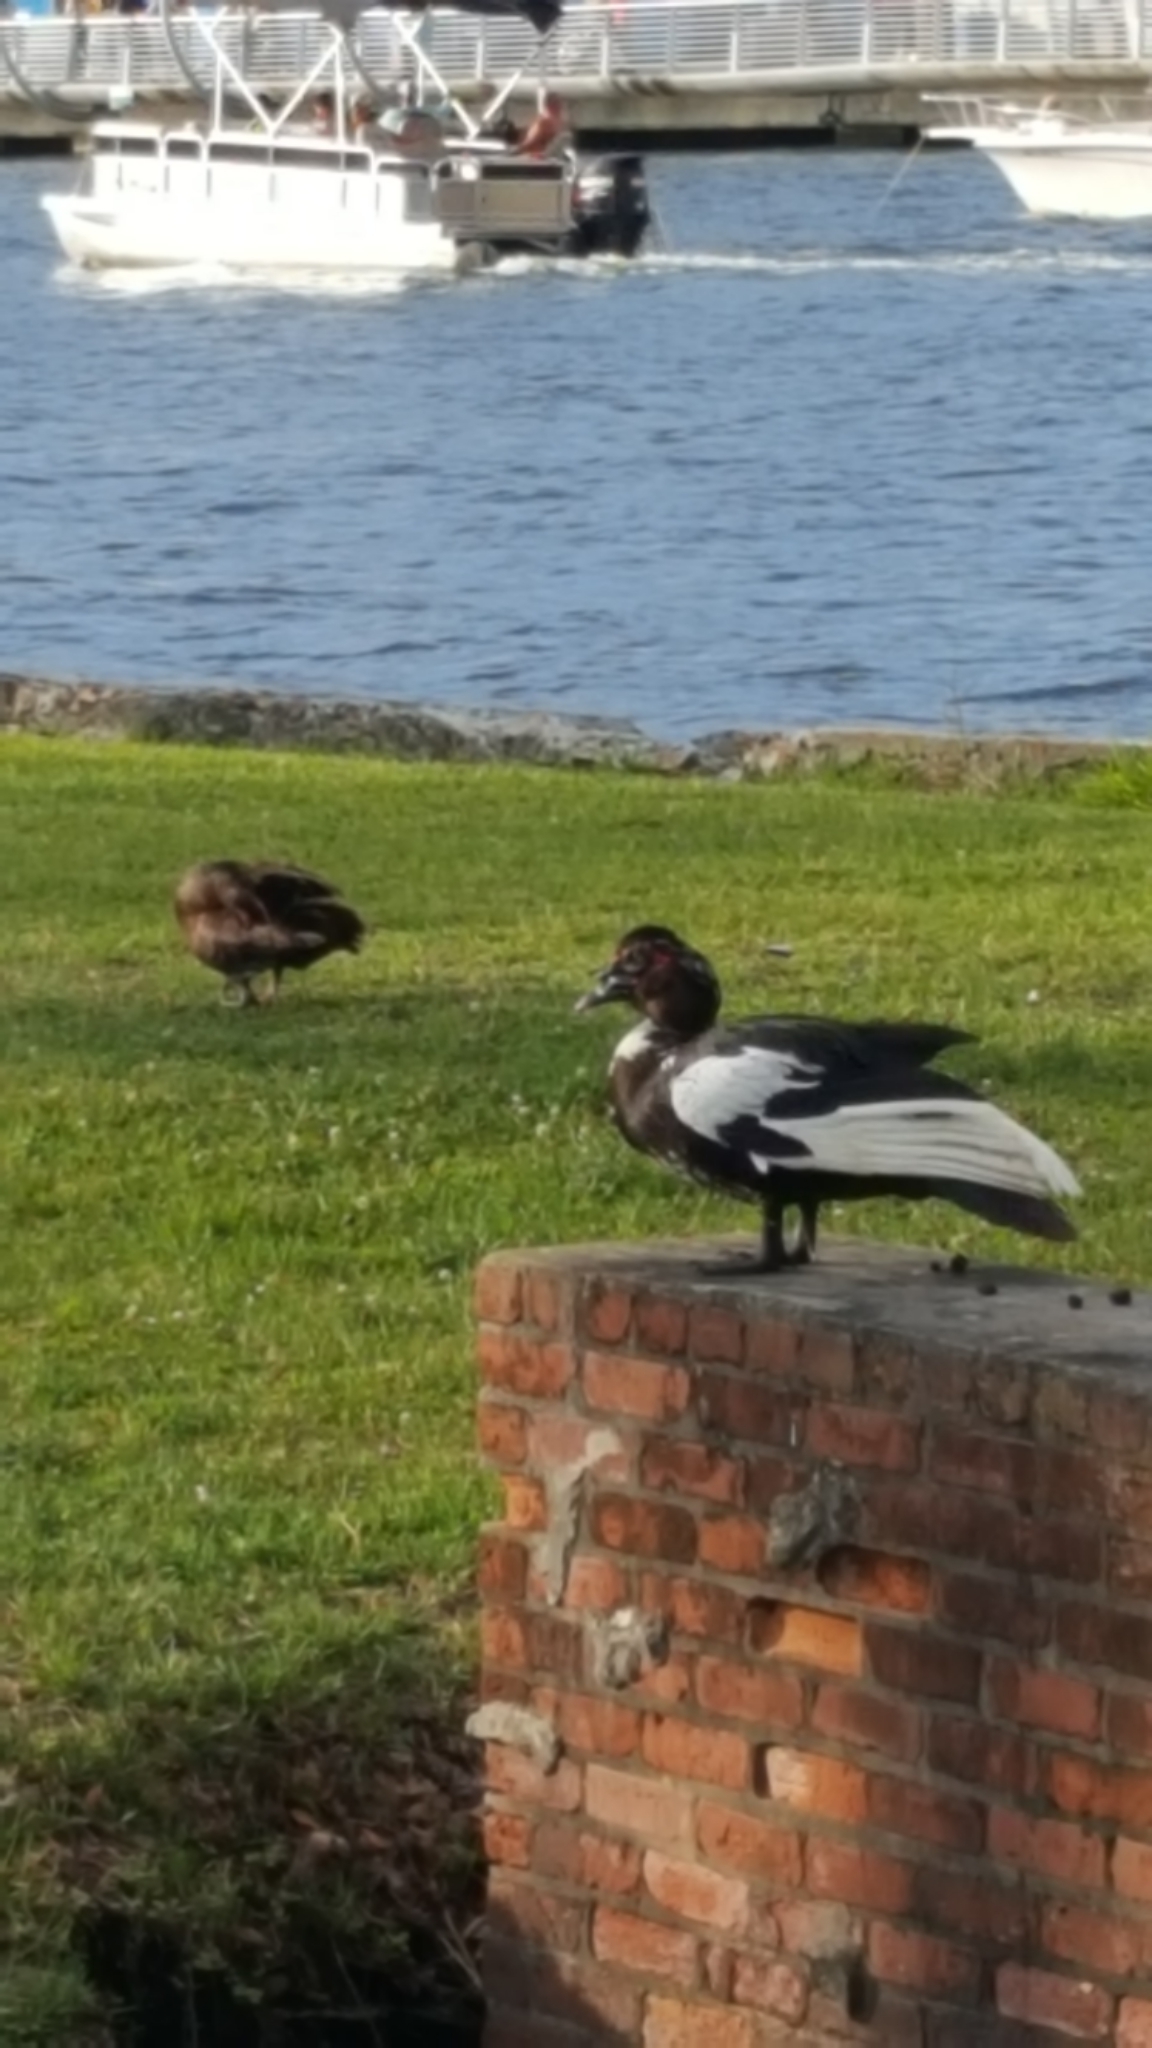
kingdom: Animalia
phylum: Chordata
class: Aves
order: Anseriformes
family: Anatidae
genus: Cairina
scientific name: Cairina moschata
